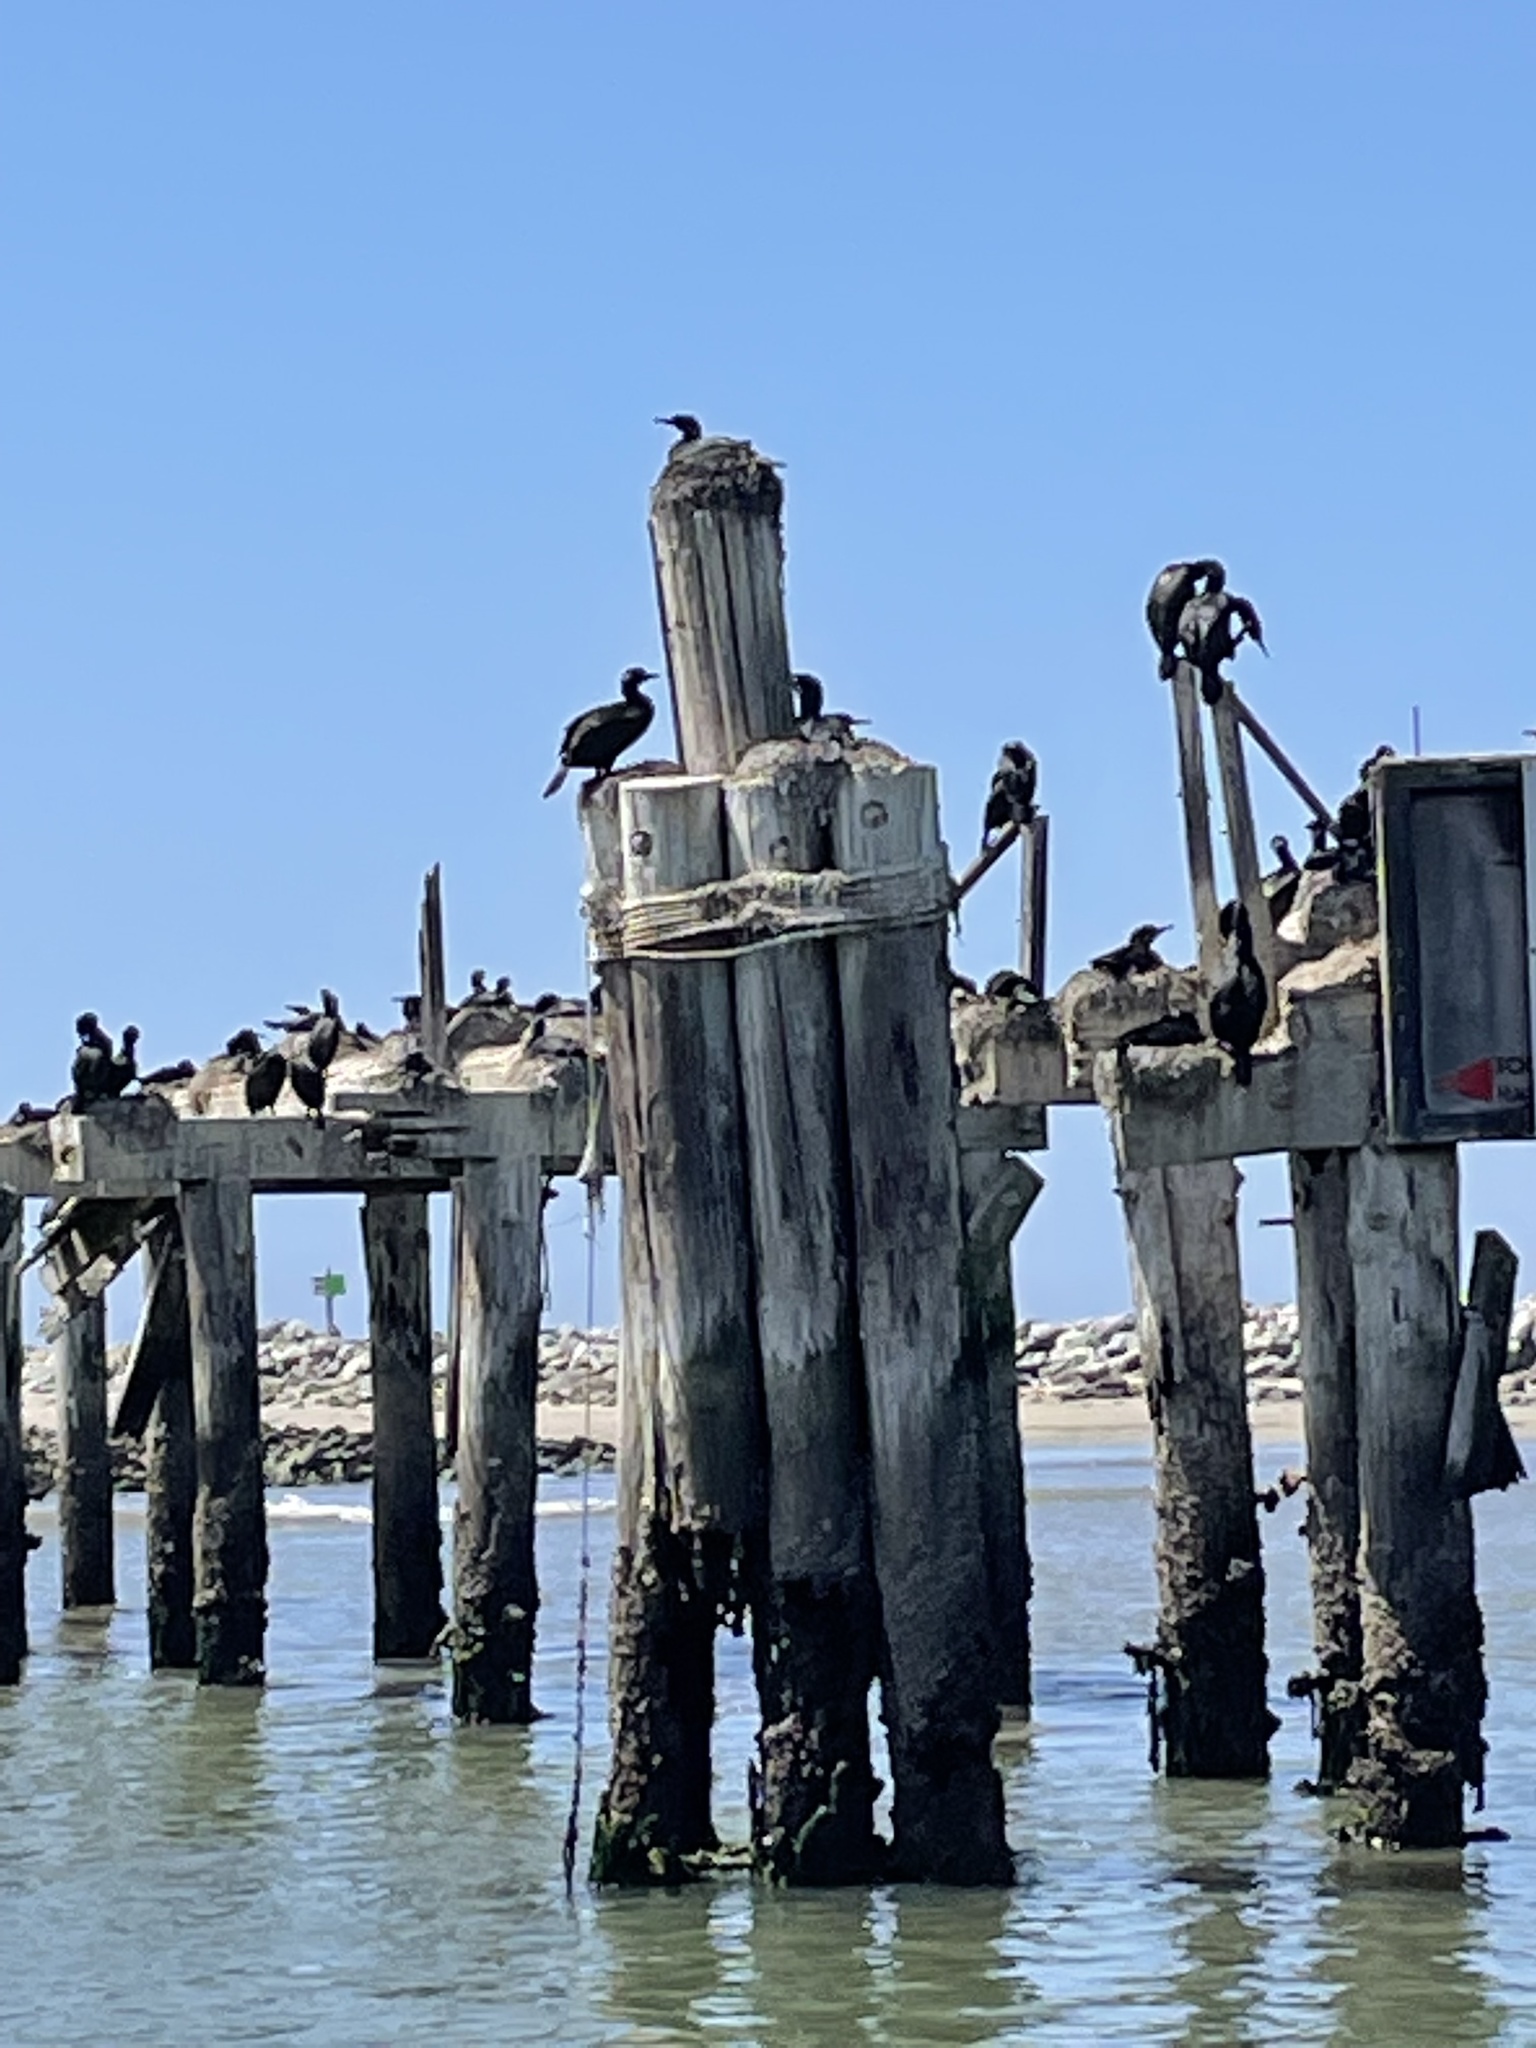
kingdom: Animalia
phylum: Chordata
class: Aves
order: Suliformes
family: Phalacrocoracidae
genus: Urile
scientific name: Urile penicillatus
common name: Brandt's cormorant
